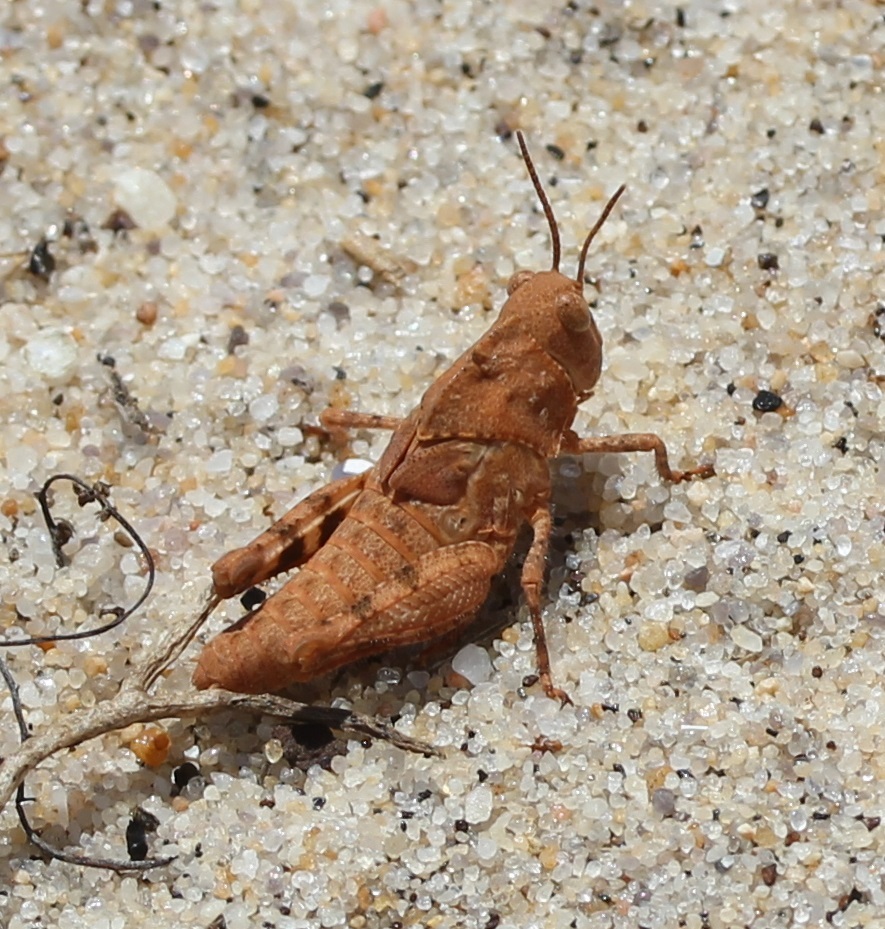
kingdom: Animalia
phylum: Arthropoda
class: Insecta
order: Orthoptera
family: Acrididae
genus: Dissosteira
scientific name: Dissosteira carolina
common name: Carolina grasshopper
